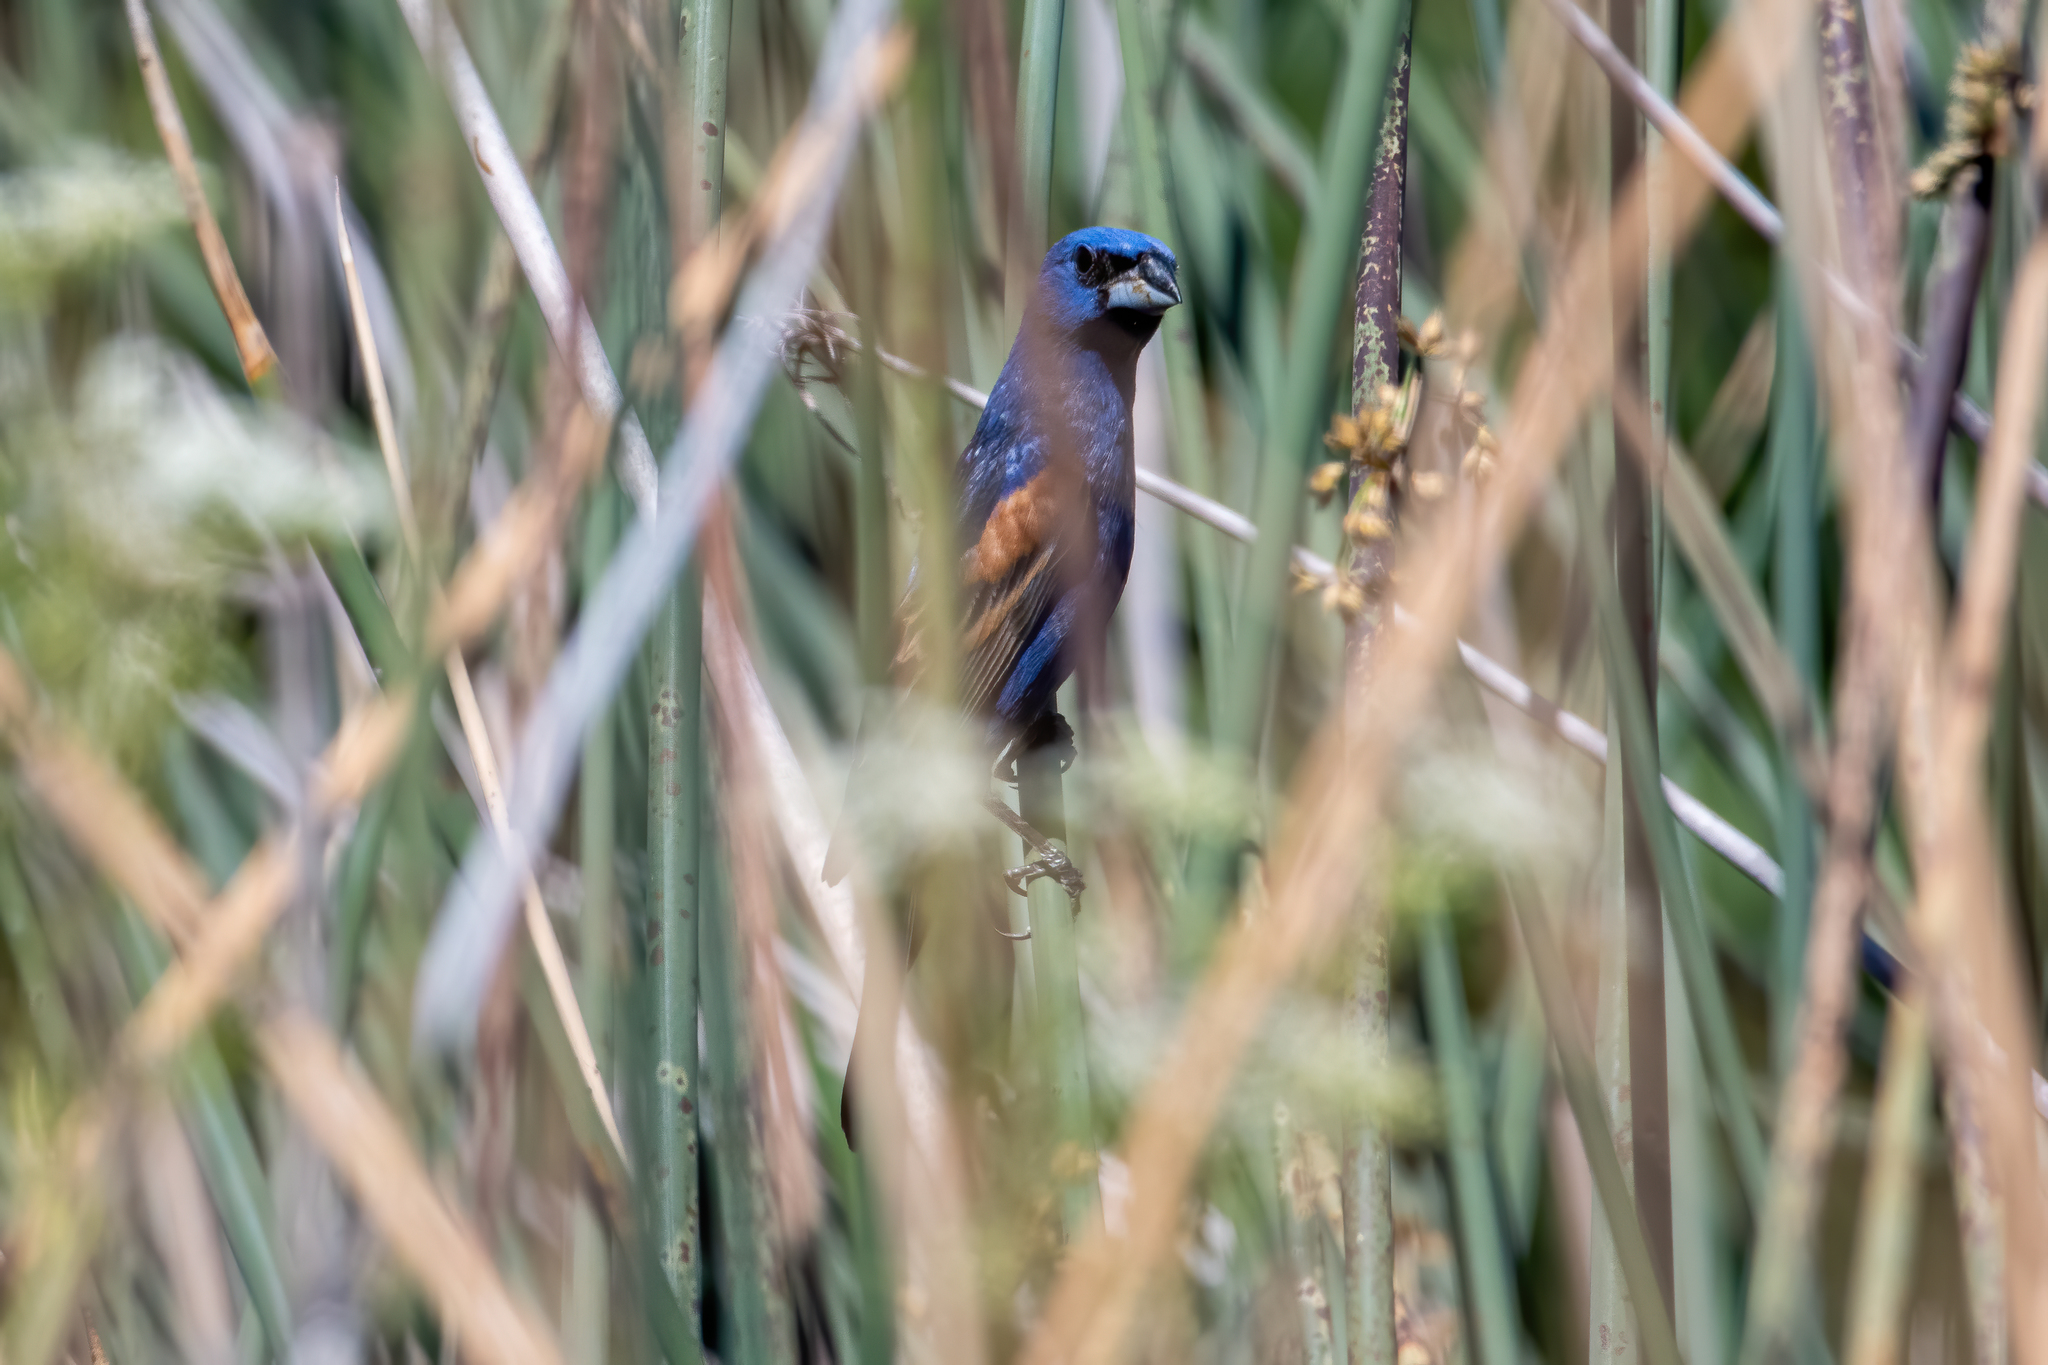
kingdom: Animalia
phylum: Chordata
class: Aves
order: Passeriformes
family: Cardinalidae
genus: Passerina
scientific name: Passerina caerulea
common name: Blue grosbeak
